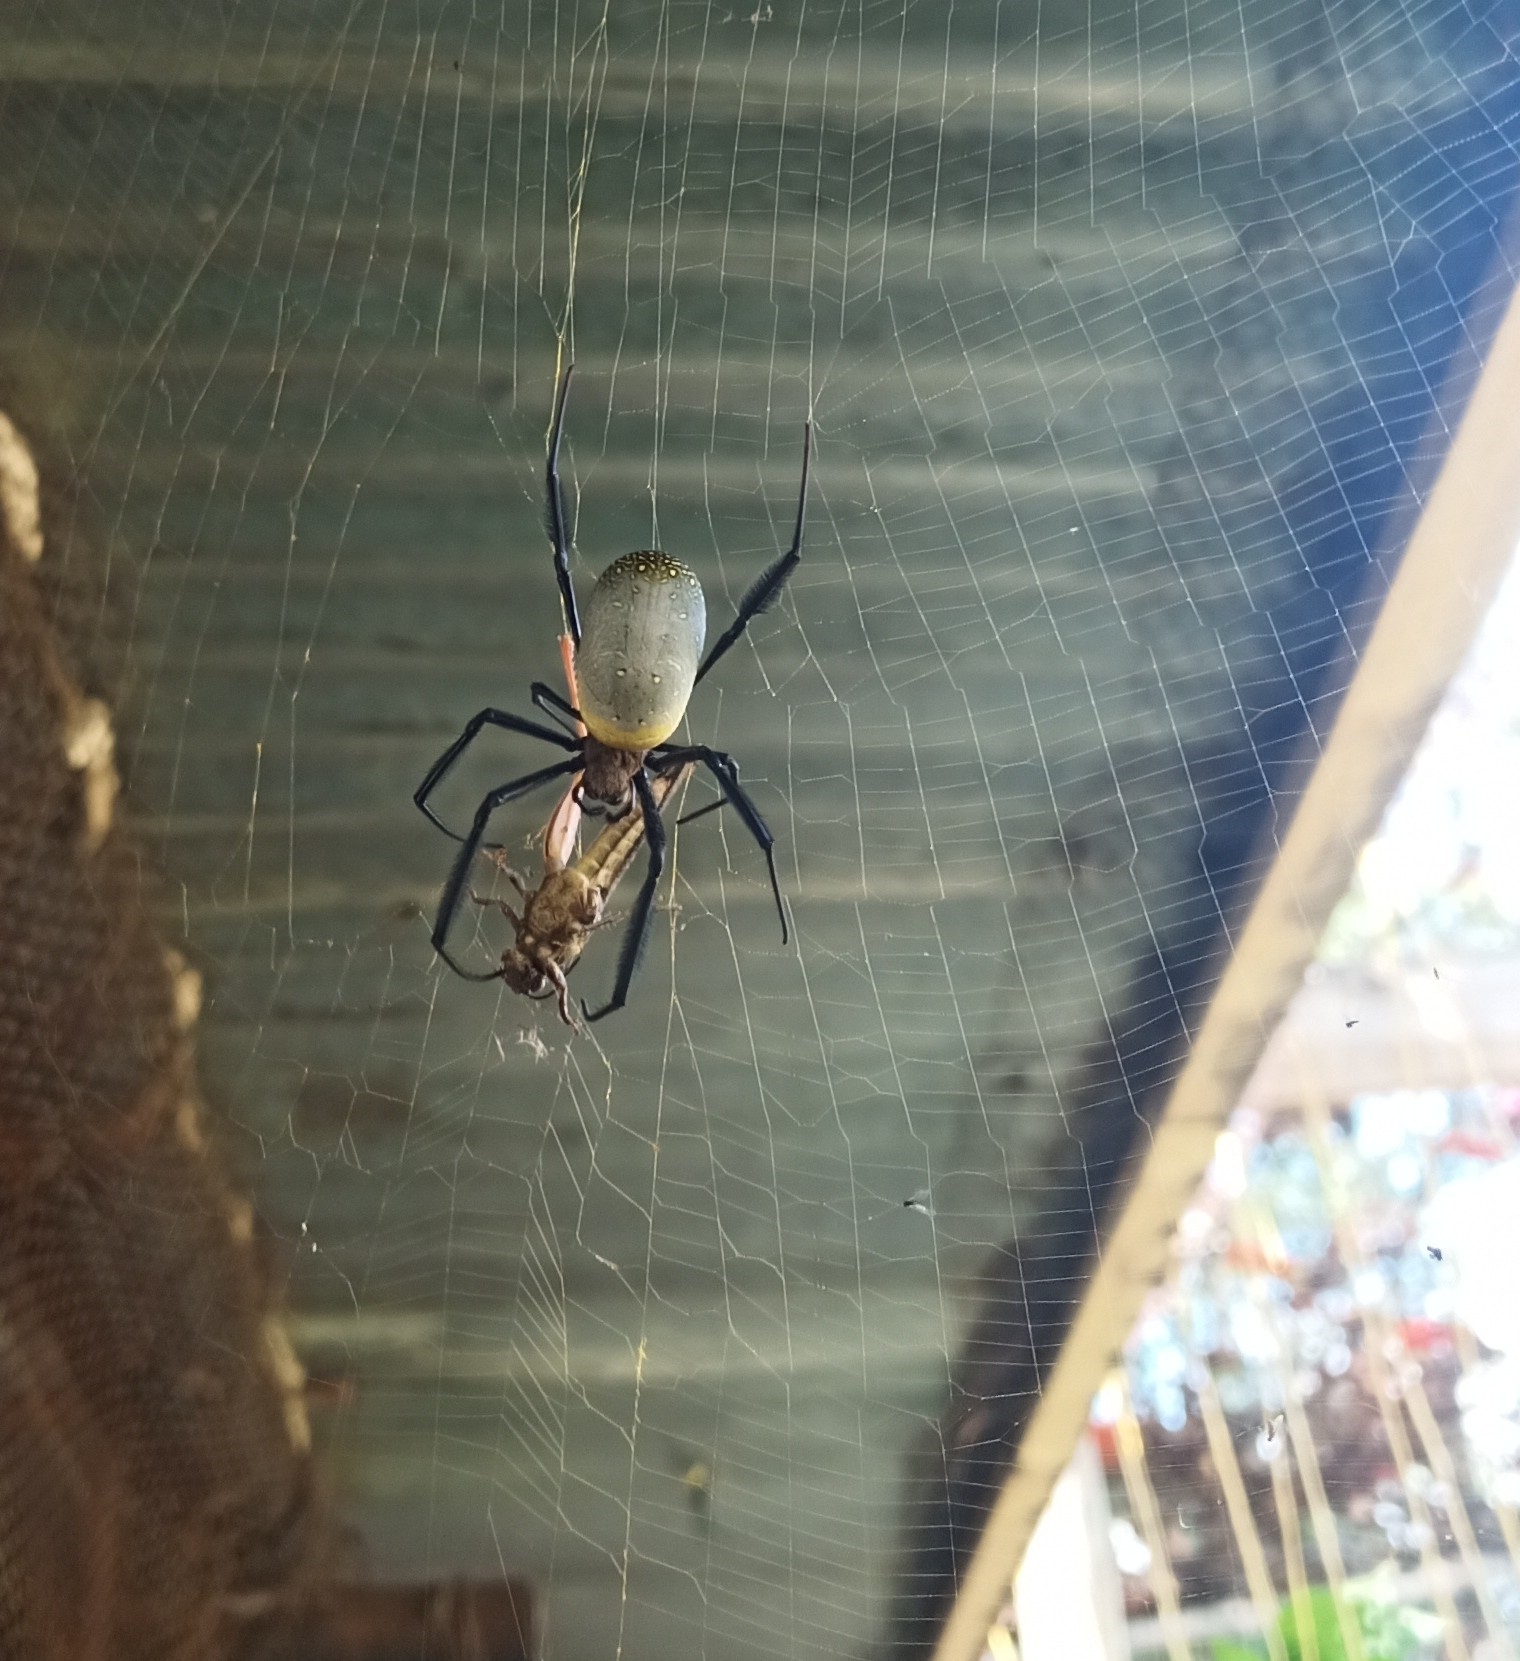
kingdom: Animalia
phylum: Arthropoda
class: Arachnida
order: Araneae
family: Araneidae
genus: Trichonephila
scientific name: Trichonephila fenestrata
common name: Hairy golden orb weaver
